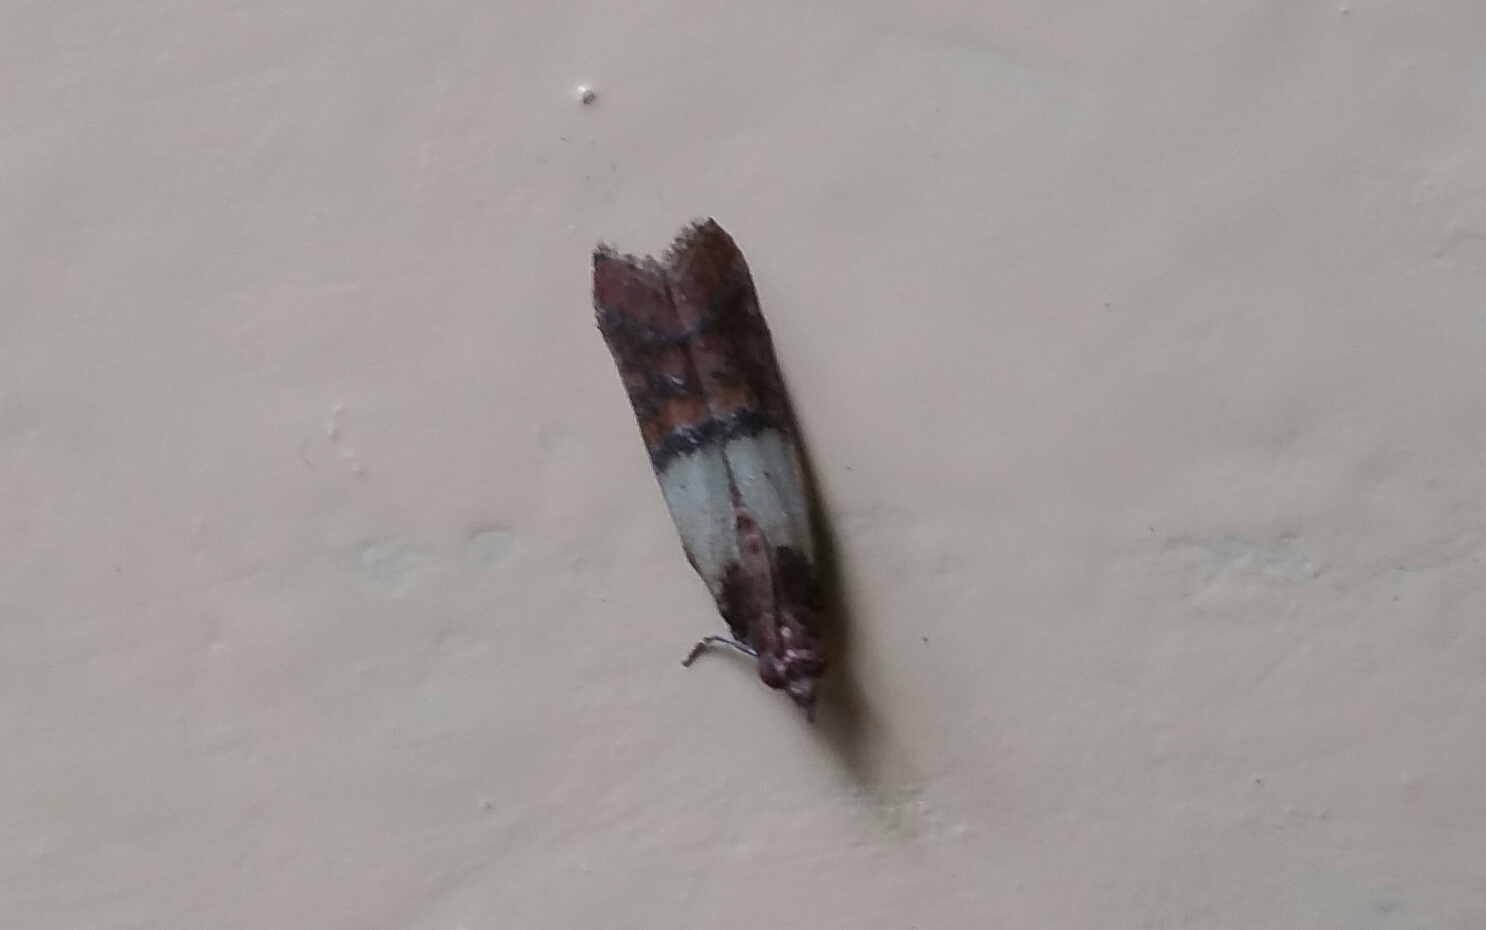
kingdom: Animalia
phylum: Arthropoda
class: Insecta
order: Lepidoptera
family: Pyralidae
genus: Plodia
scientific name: Plodia interpunctella
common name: Indian meal moth
